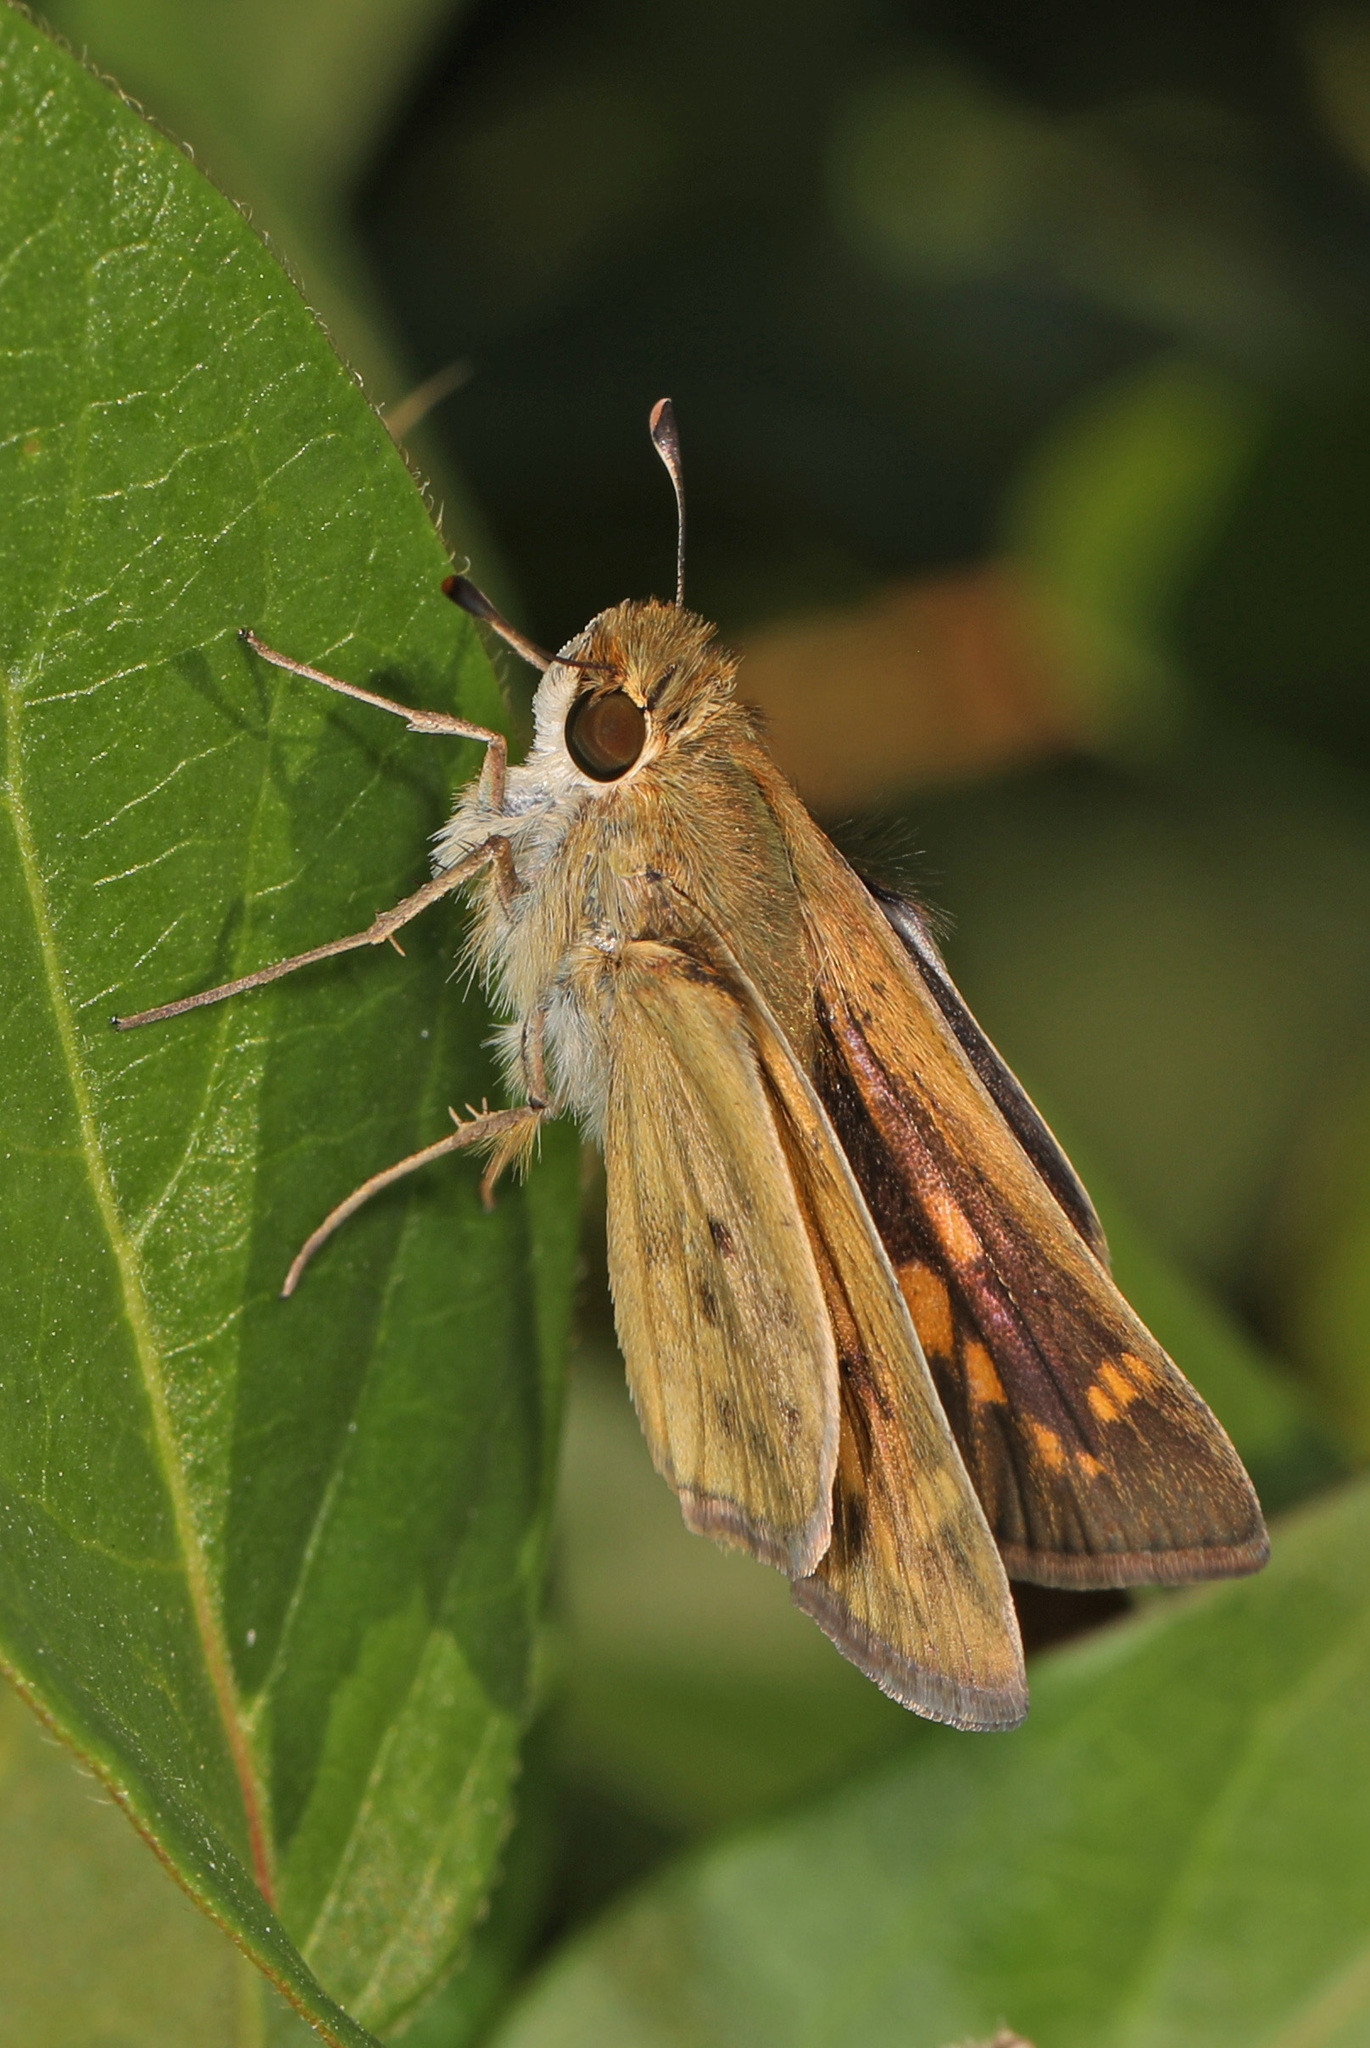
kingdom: Animalia
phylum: Arthropoda
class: Insecta
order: Lepidoptera
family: Hesperiidae
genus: Hylephila
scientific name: Hylephila phyleus
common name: Fiery skipper
